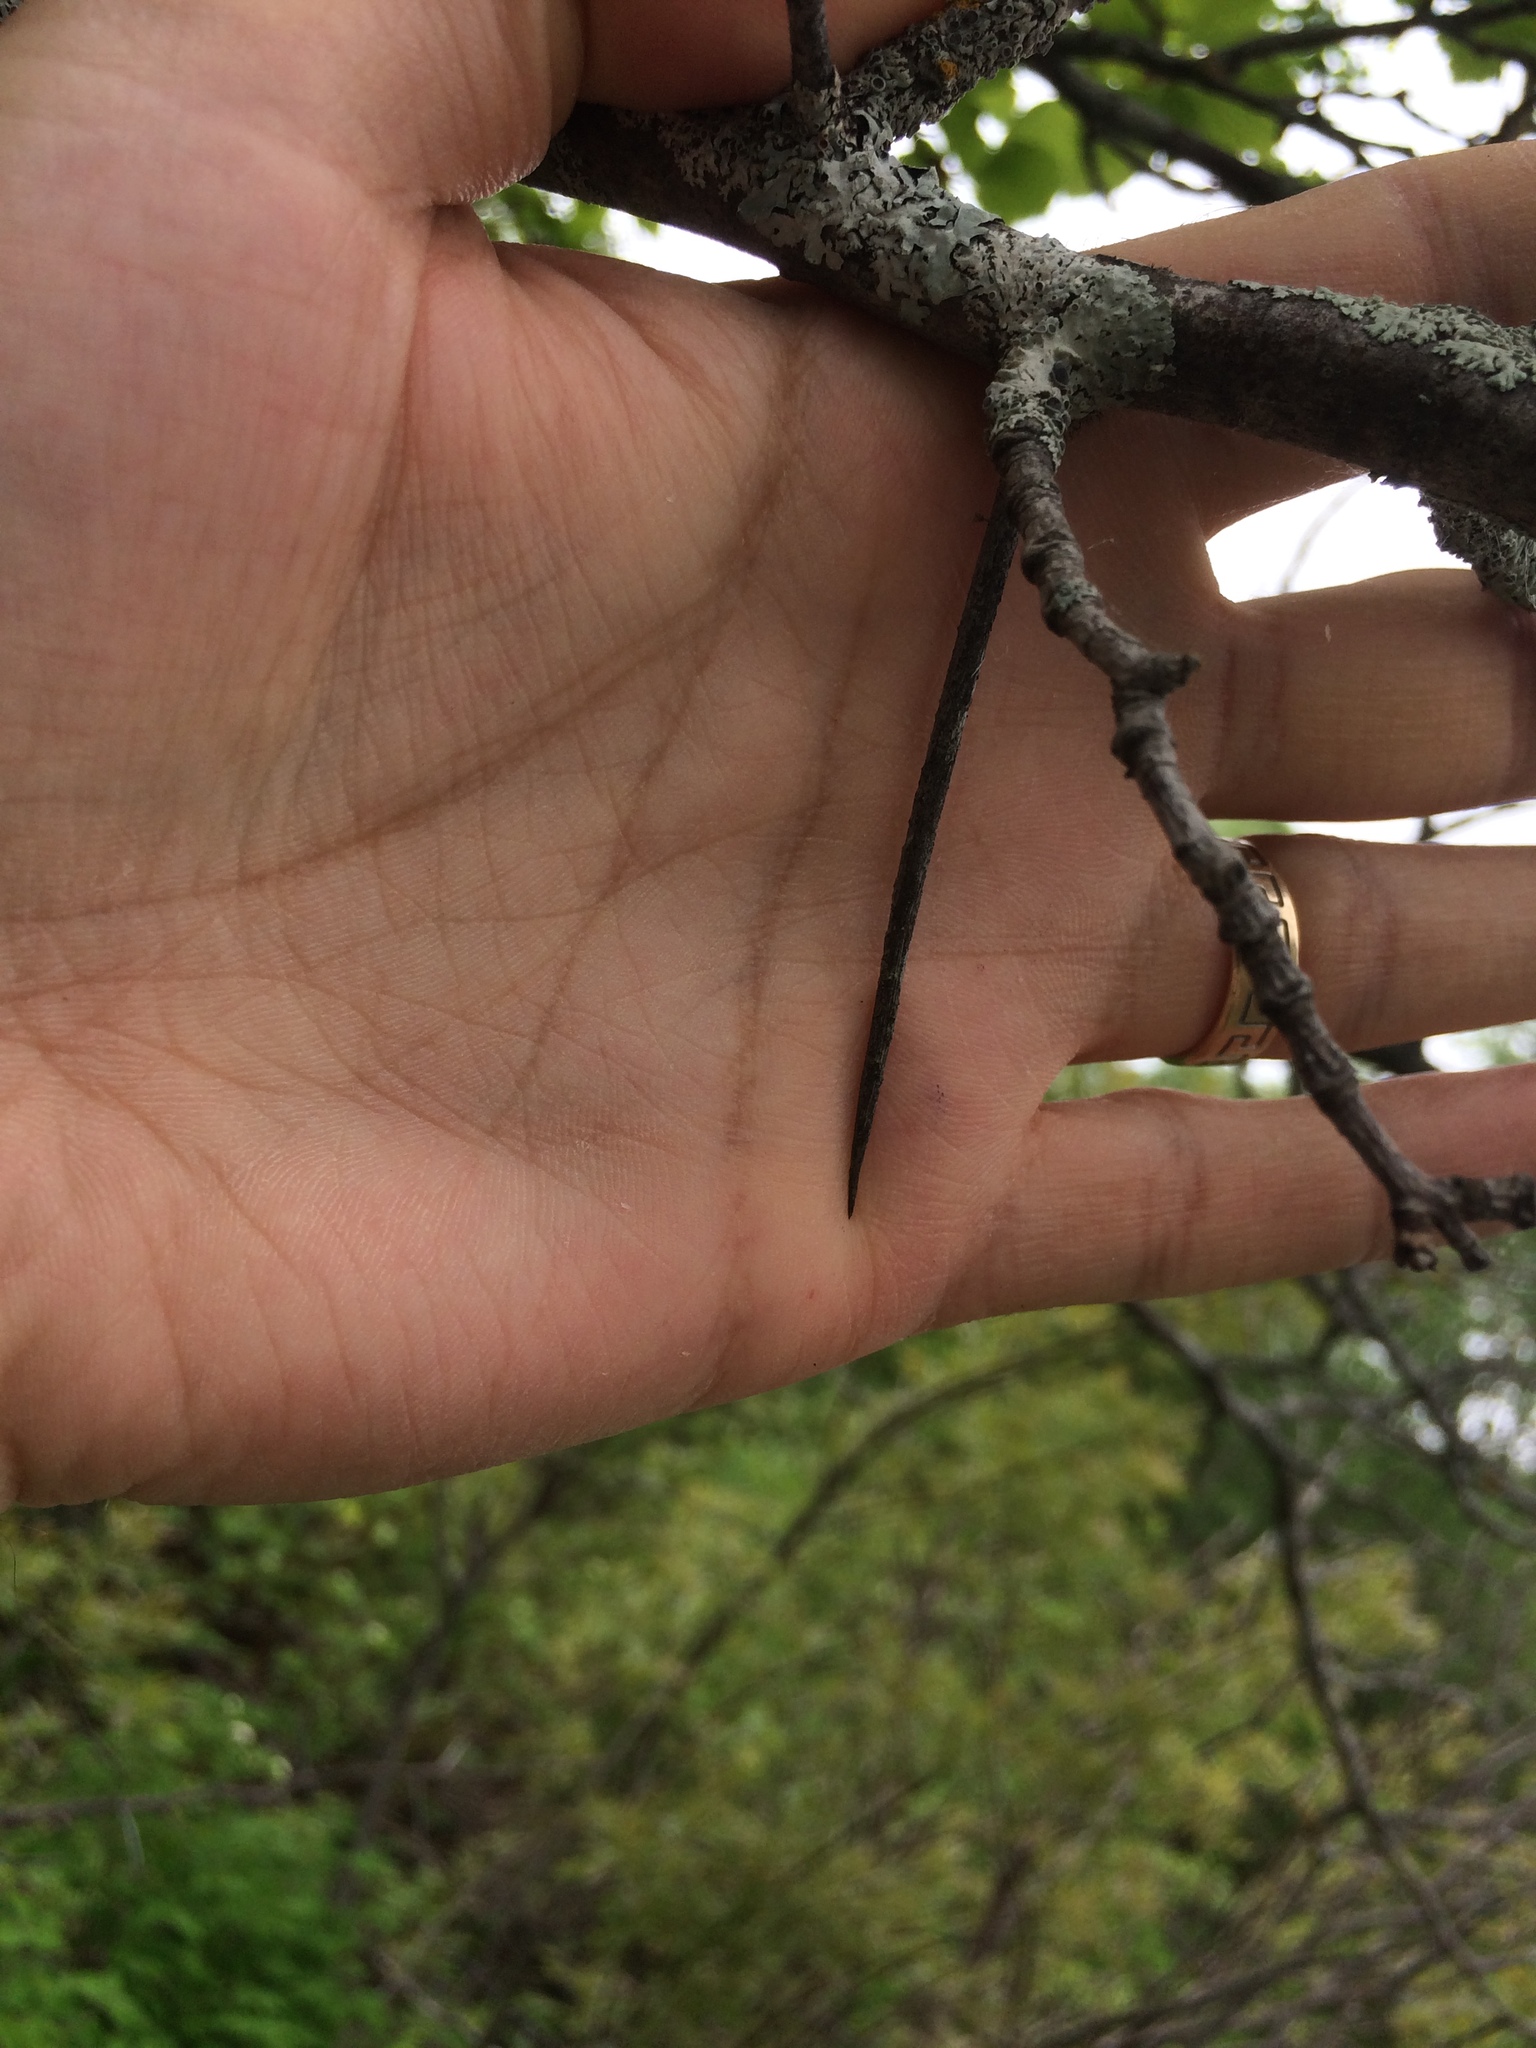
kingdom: Plantae
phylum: Tracheophyta
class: Magnoliopsida
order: Rosales
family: Rosaceae
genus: Crataegus
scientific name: Crataegus macracantha
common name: Large-thorn hawthorn
